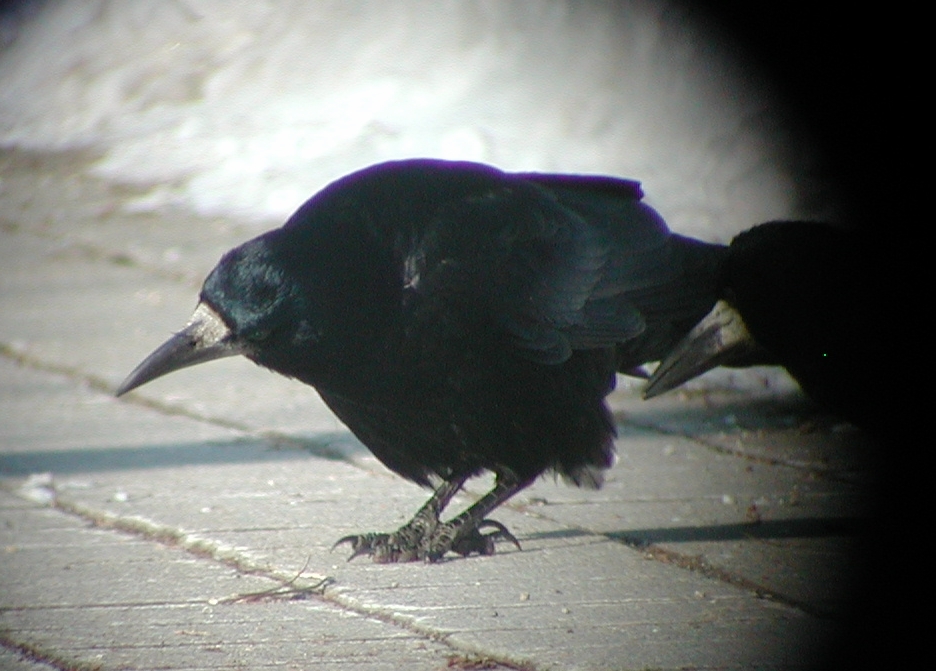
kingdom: Animalia
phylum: Chordata
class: Aves
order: Passeriformes
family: Corvidae
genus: Corvus
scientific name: Corvus frugilegus
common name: Rook
